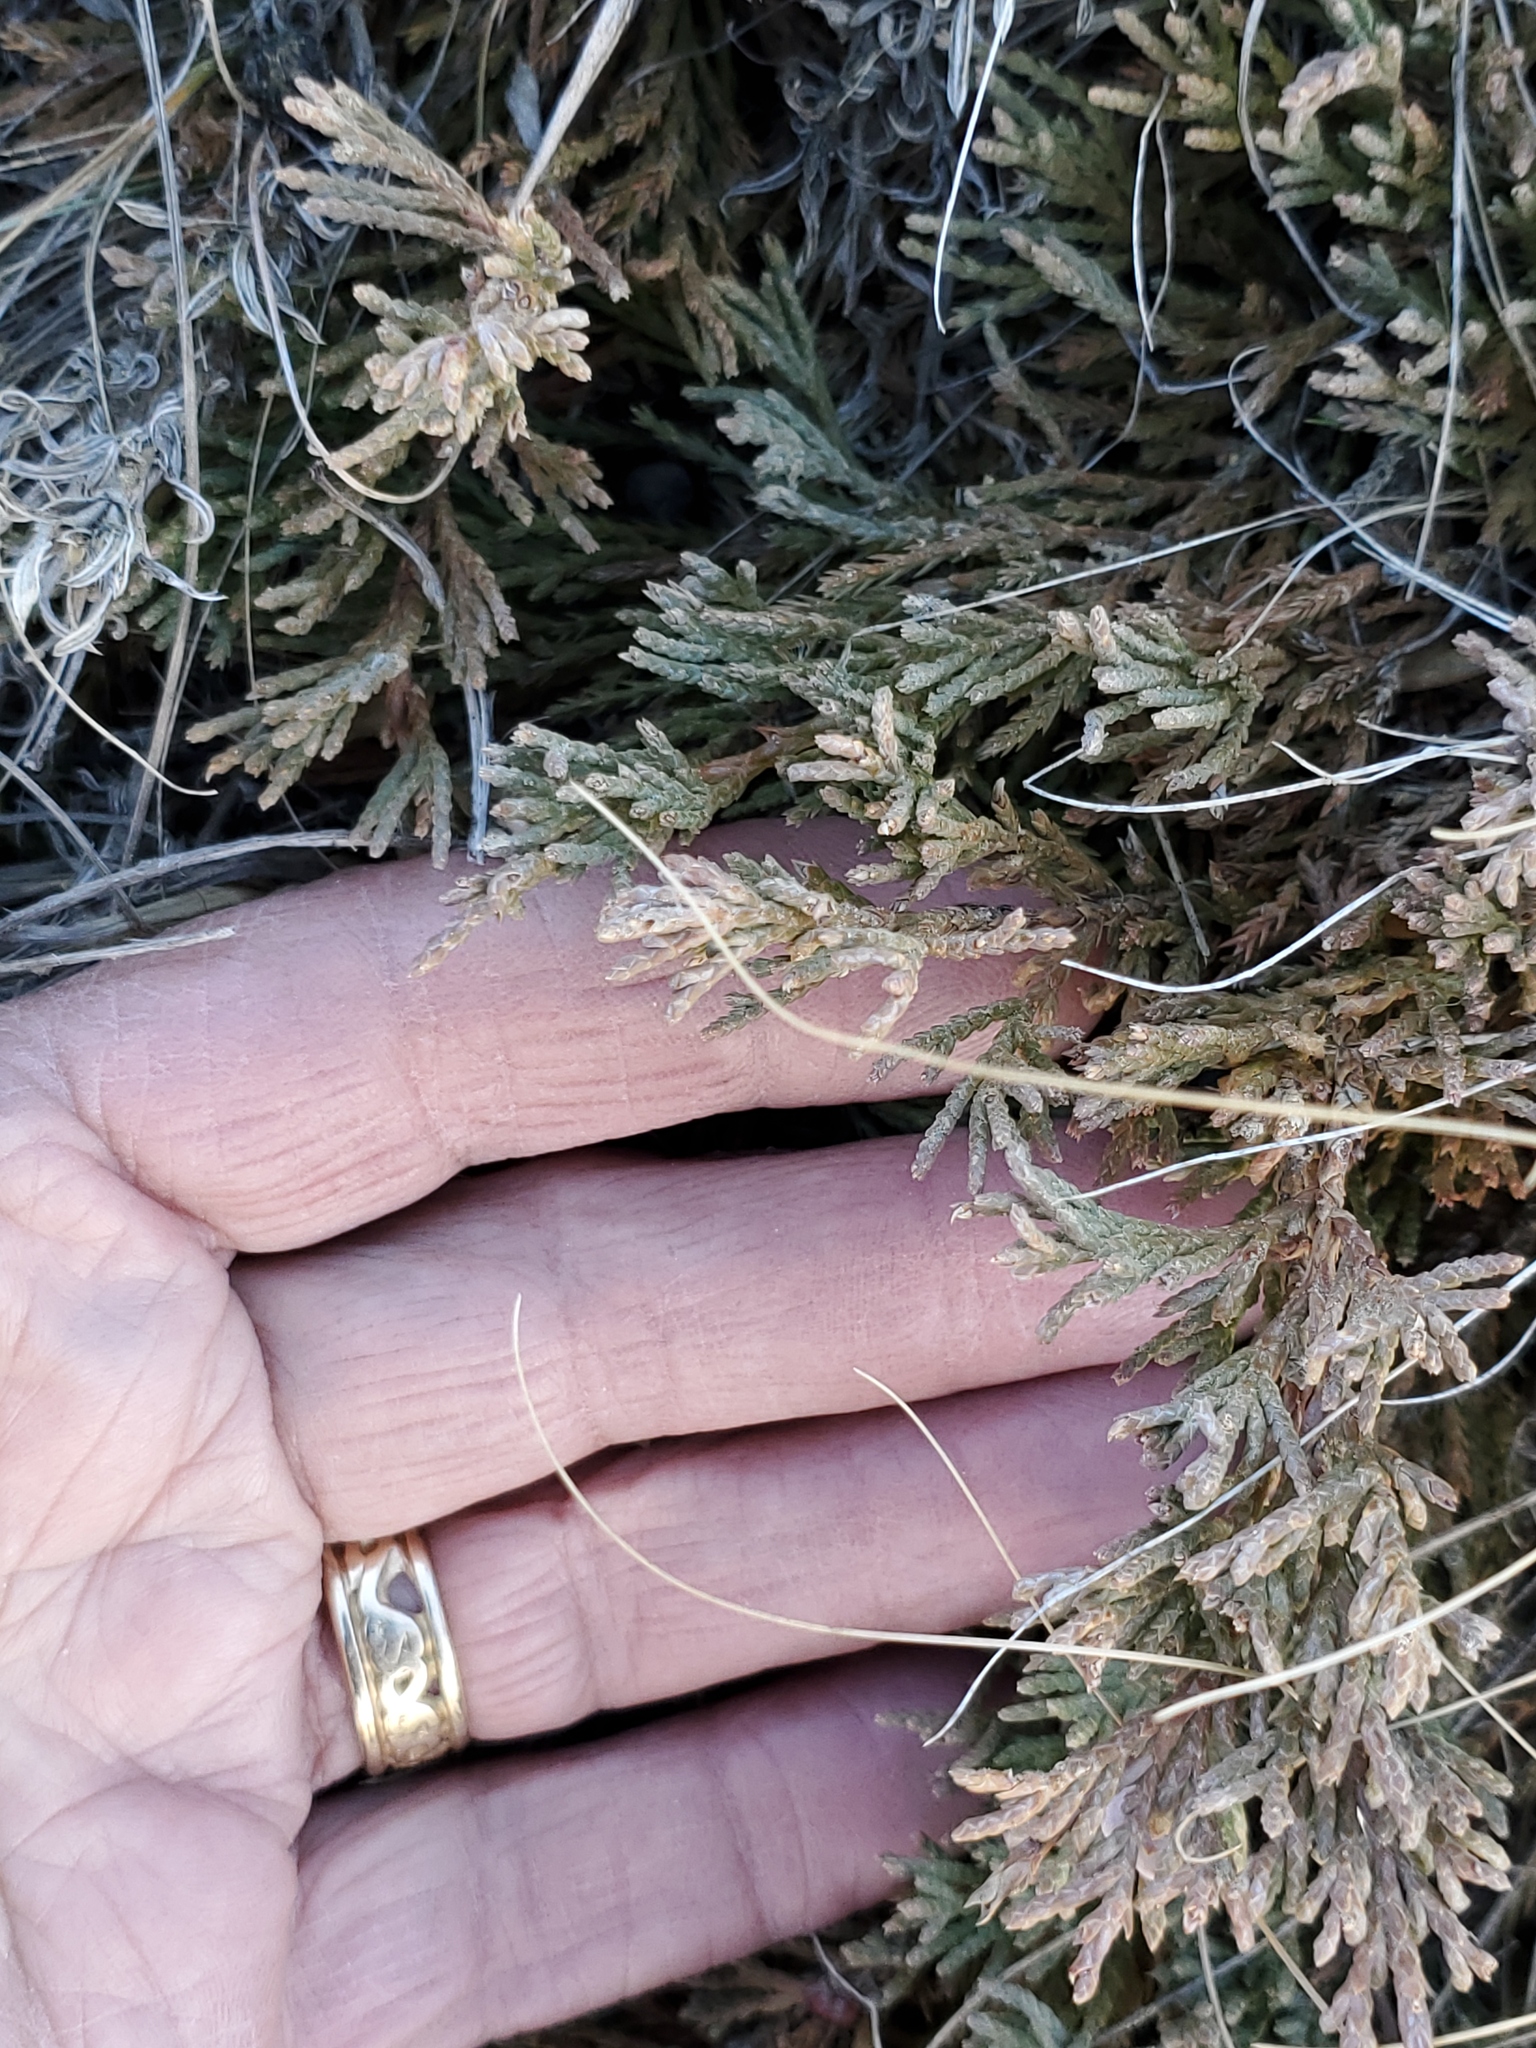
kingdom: Plantae
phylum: Tracheophyta
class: Pinopsida
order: Pinales
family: Cupressaceae
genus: Juniperus
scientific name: Juniperus horizontalis
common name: Creeping juniper
